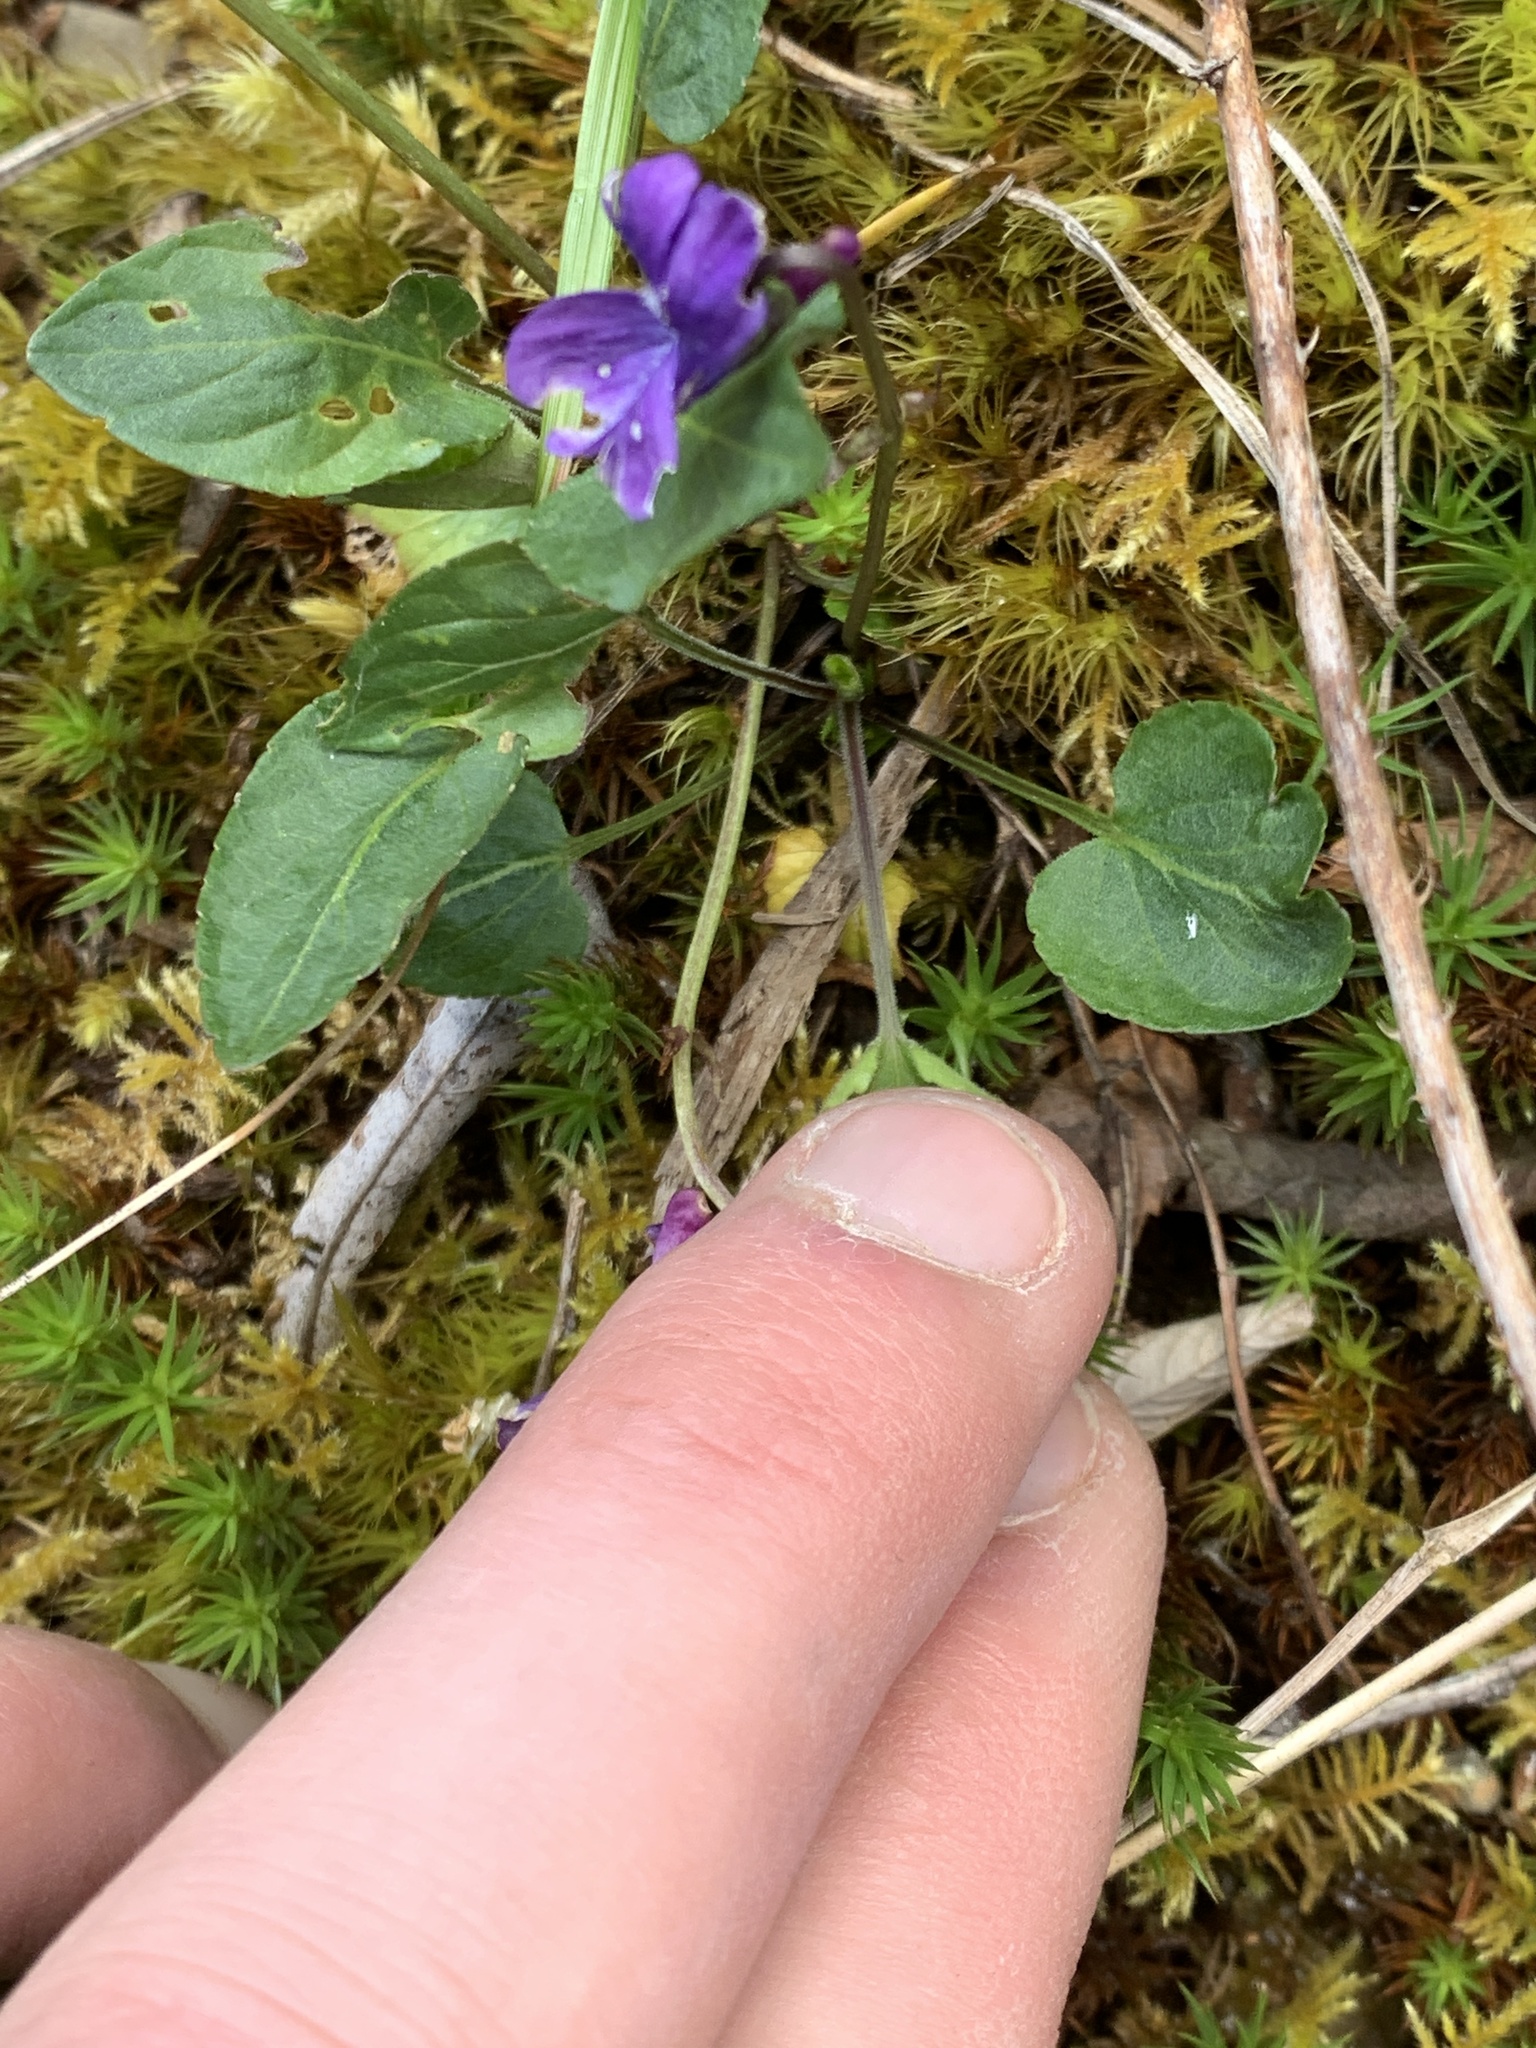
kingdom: Plantae
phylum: Tracheophyta
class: Magnoliopsida
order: Malpighiales
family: Violaceae
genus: Viola
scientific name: Viola adunca
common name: Sand violet
